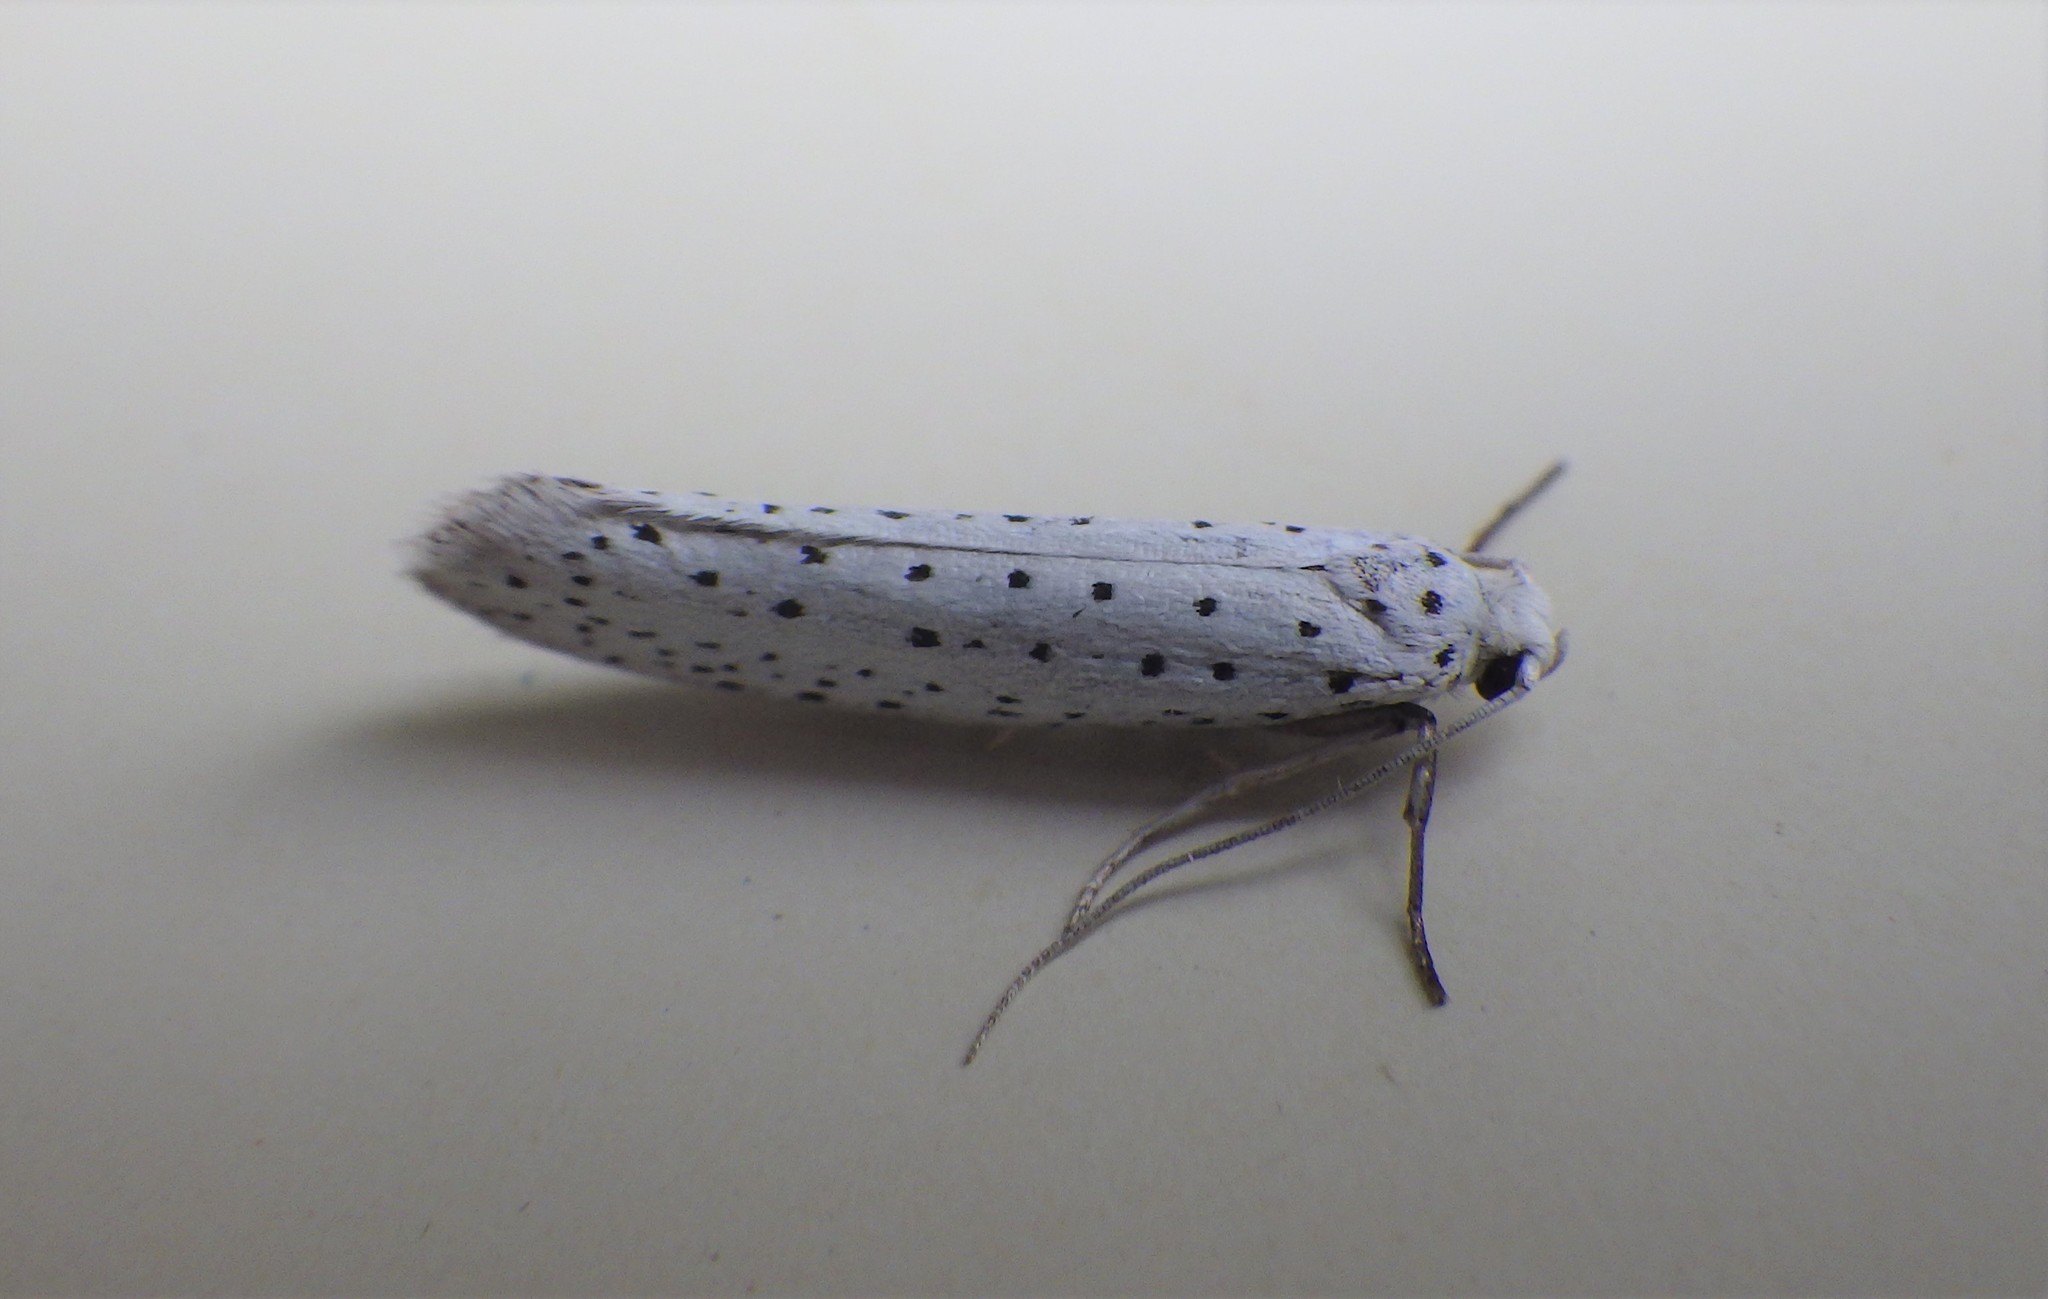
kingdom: Animalia
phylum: Arthropoda
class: Insecta
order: Lepidoptera
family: Yponomeutidae
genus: Yponomeuta
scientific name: Yponomeuta evonymella
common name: Bird-cherry ermine
